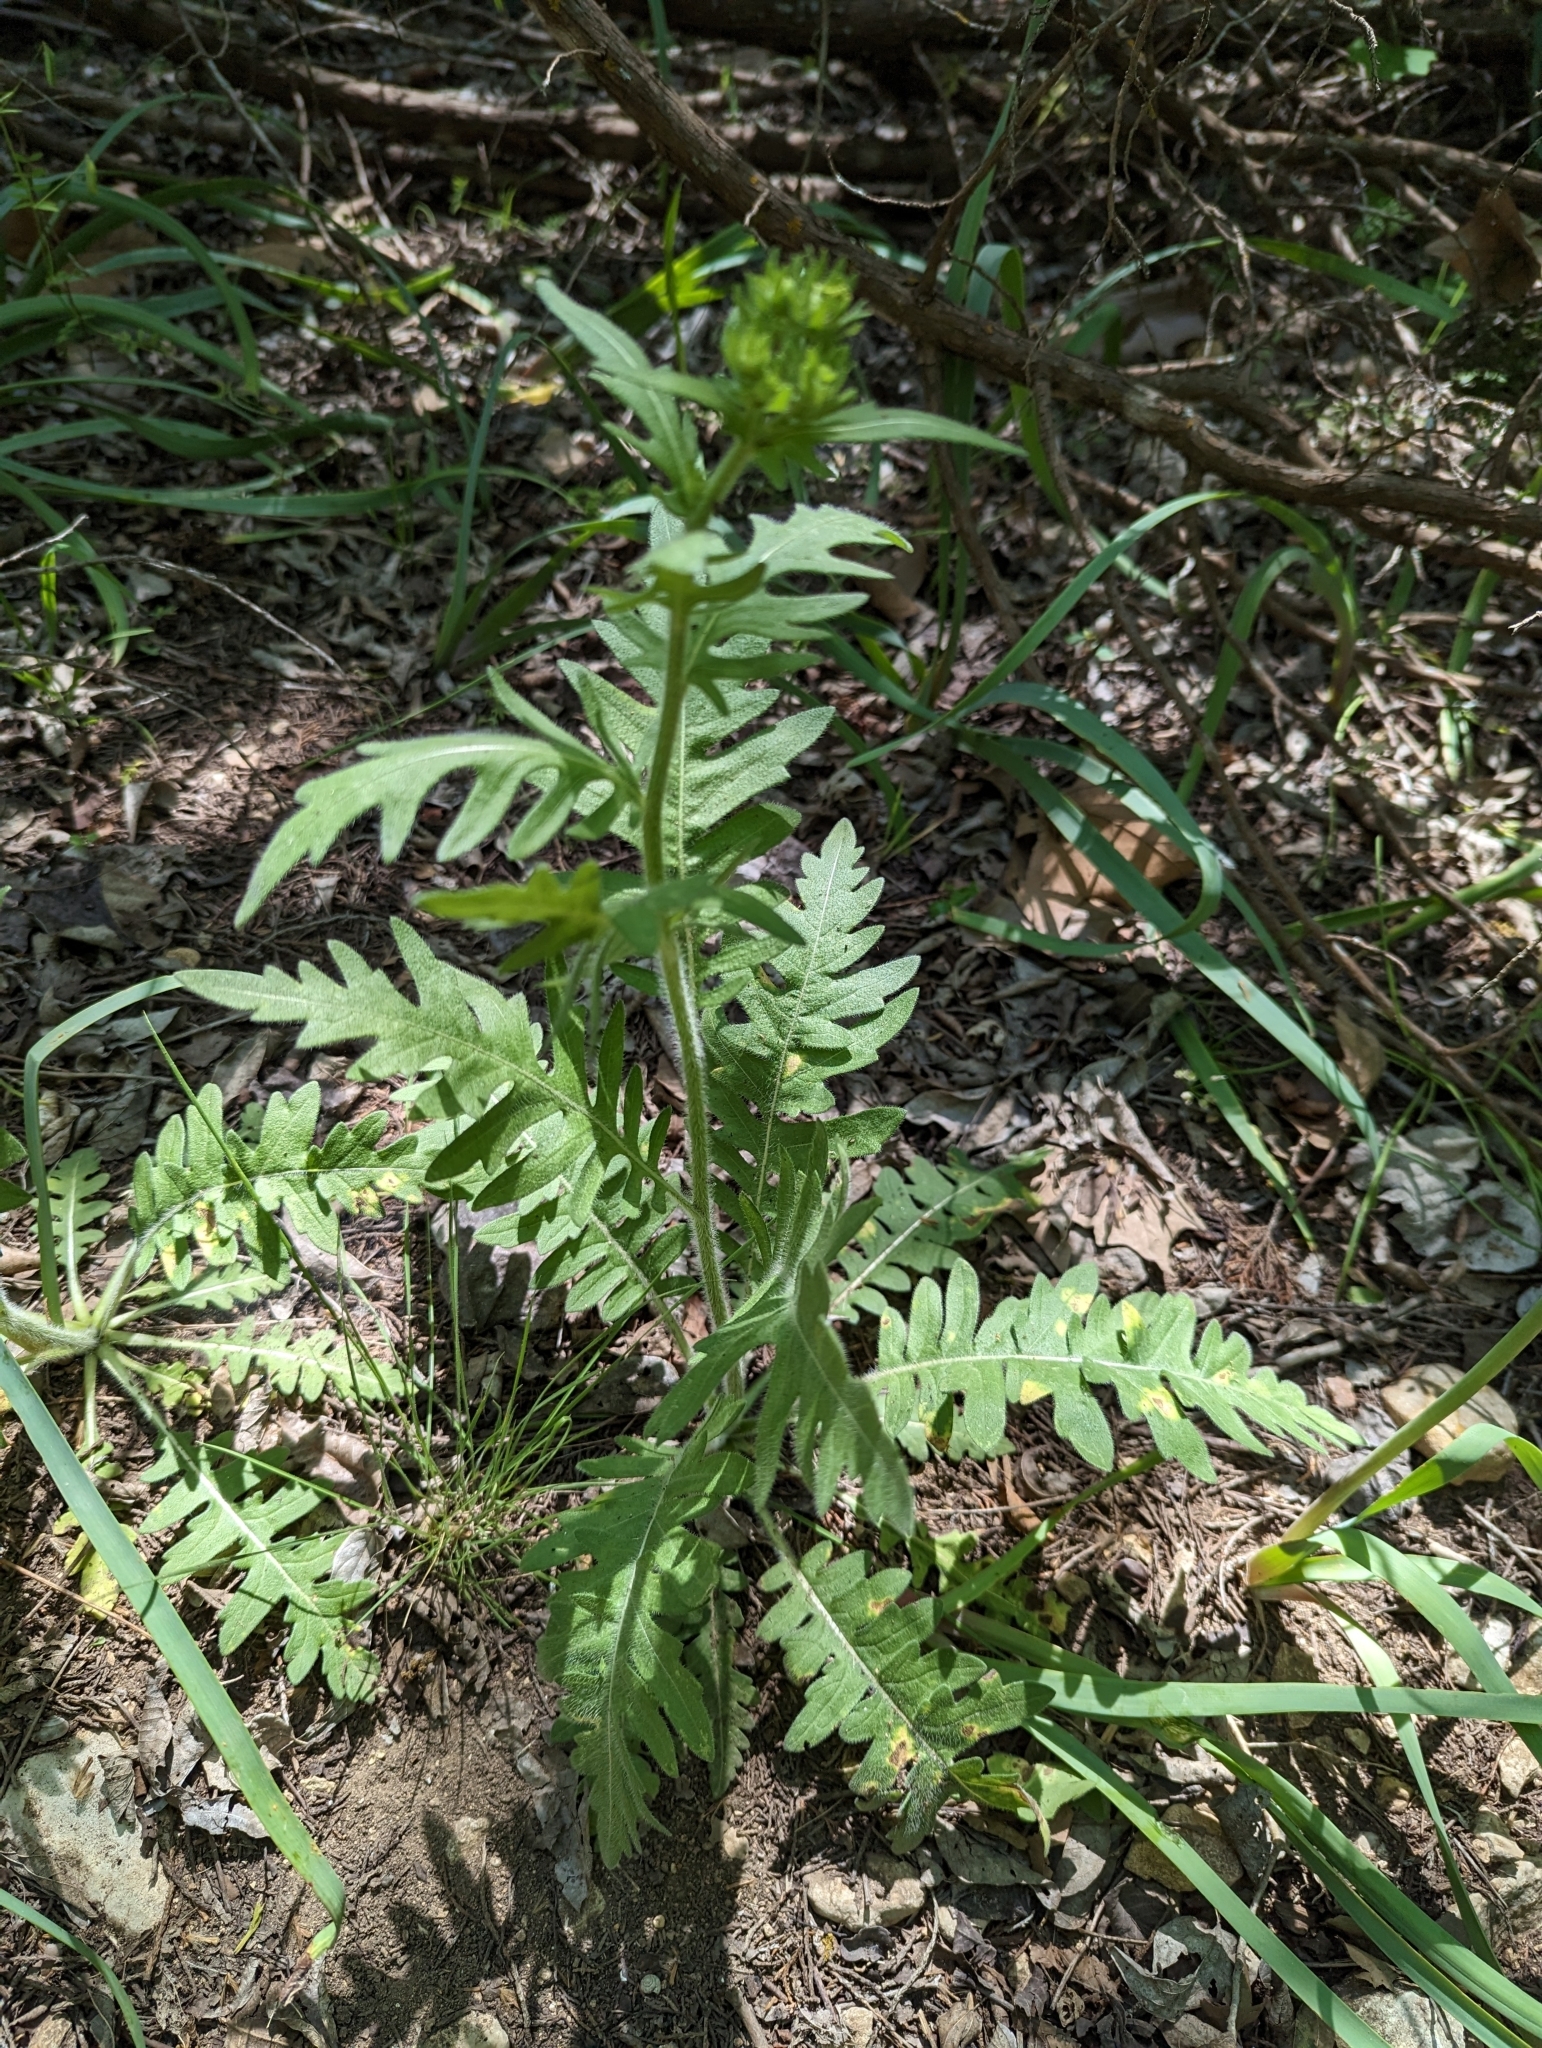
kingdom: Plantae
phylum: Tracheophyta
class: Magnoliopsida
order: Asterales
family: Asteraceae
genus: Engelmannia
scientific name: Engelmannia peristenia
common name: Engelmann's daisy
